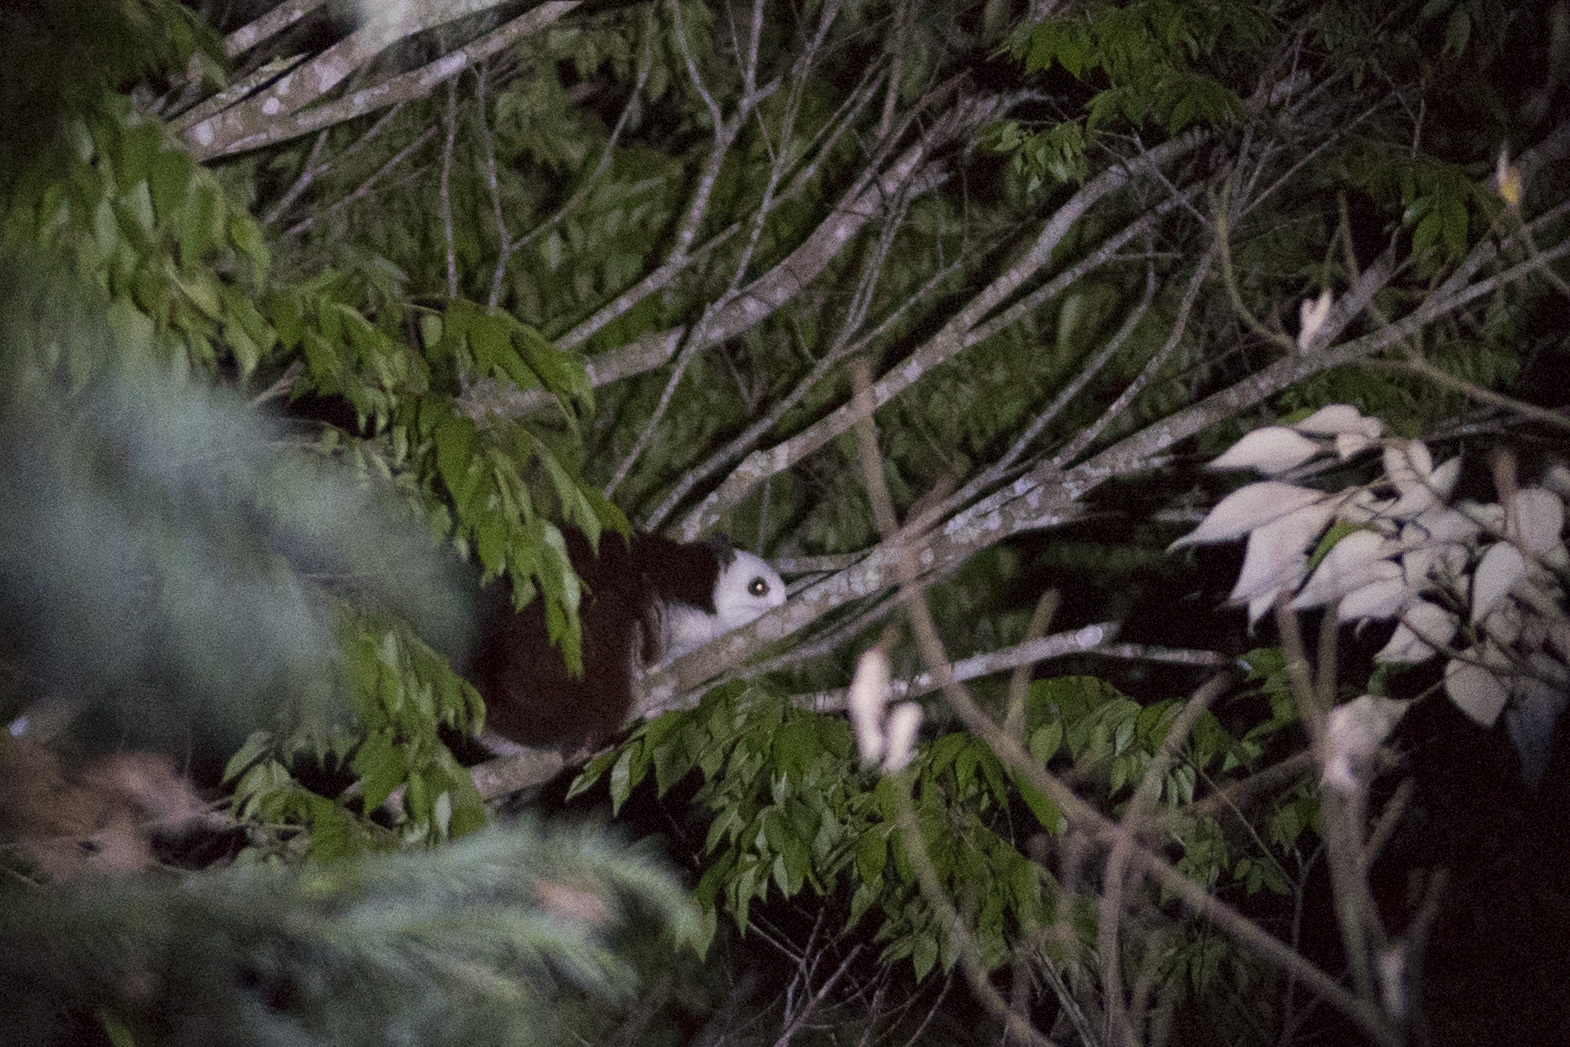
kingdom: Animalia
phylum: Chordata
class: Mammalia
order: Rodentia
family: Sciuridae
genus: Petaurista
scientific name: Petaurista lena
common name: Taiwan giant flying squirrel
